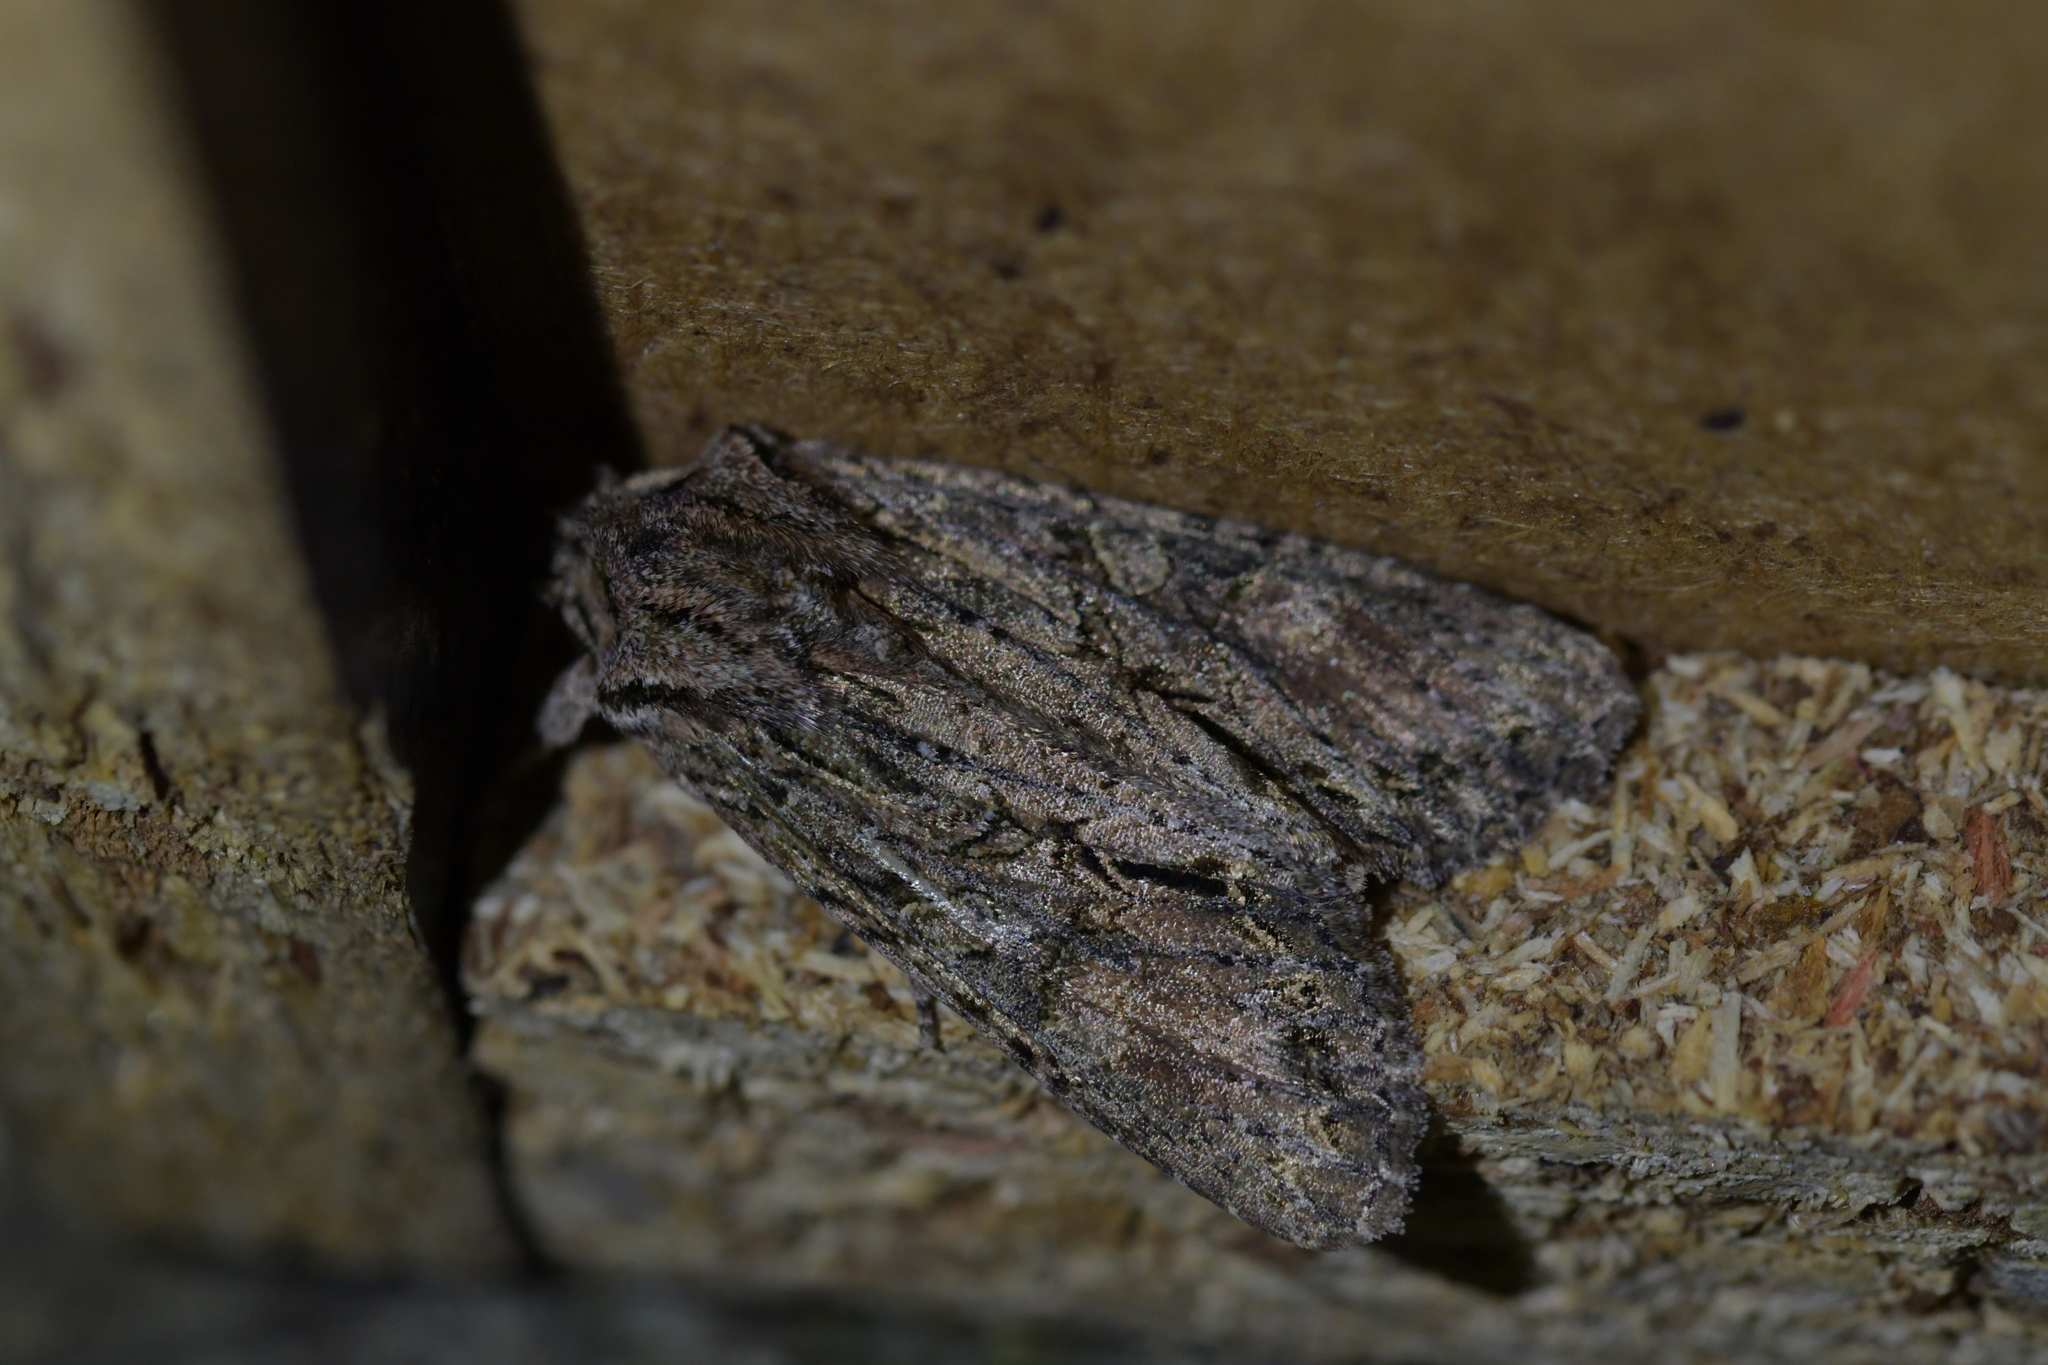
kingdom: Animalia
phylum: Arthropoda
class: Insecta
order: Lepidoptera
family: Noctuidae
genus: Ichneutica
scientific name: Ichneutica mutans
